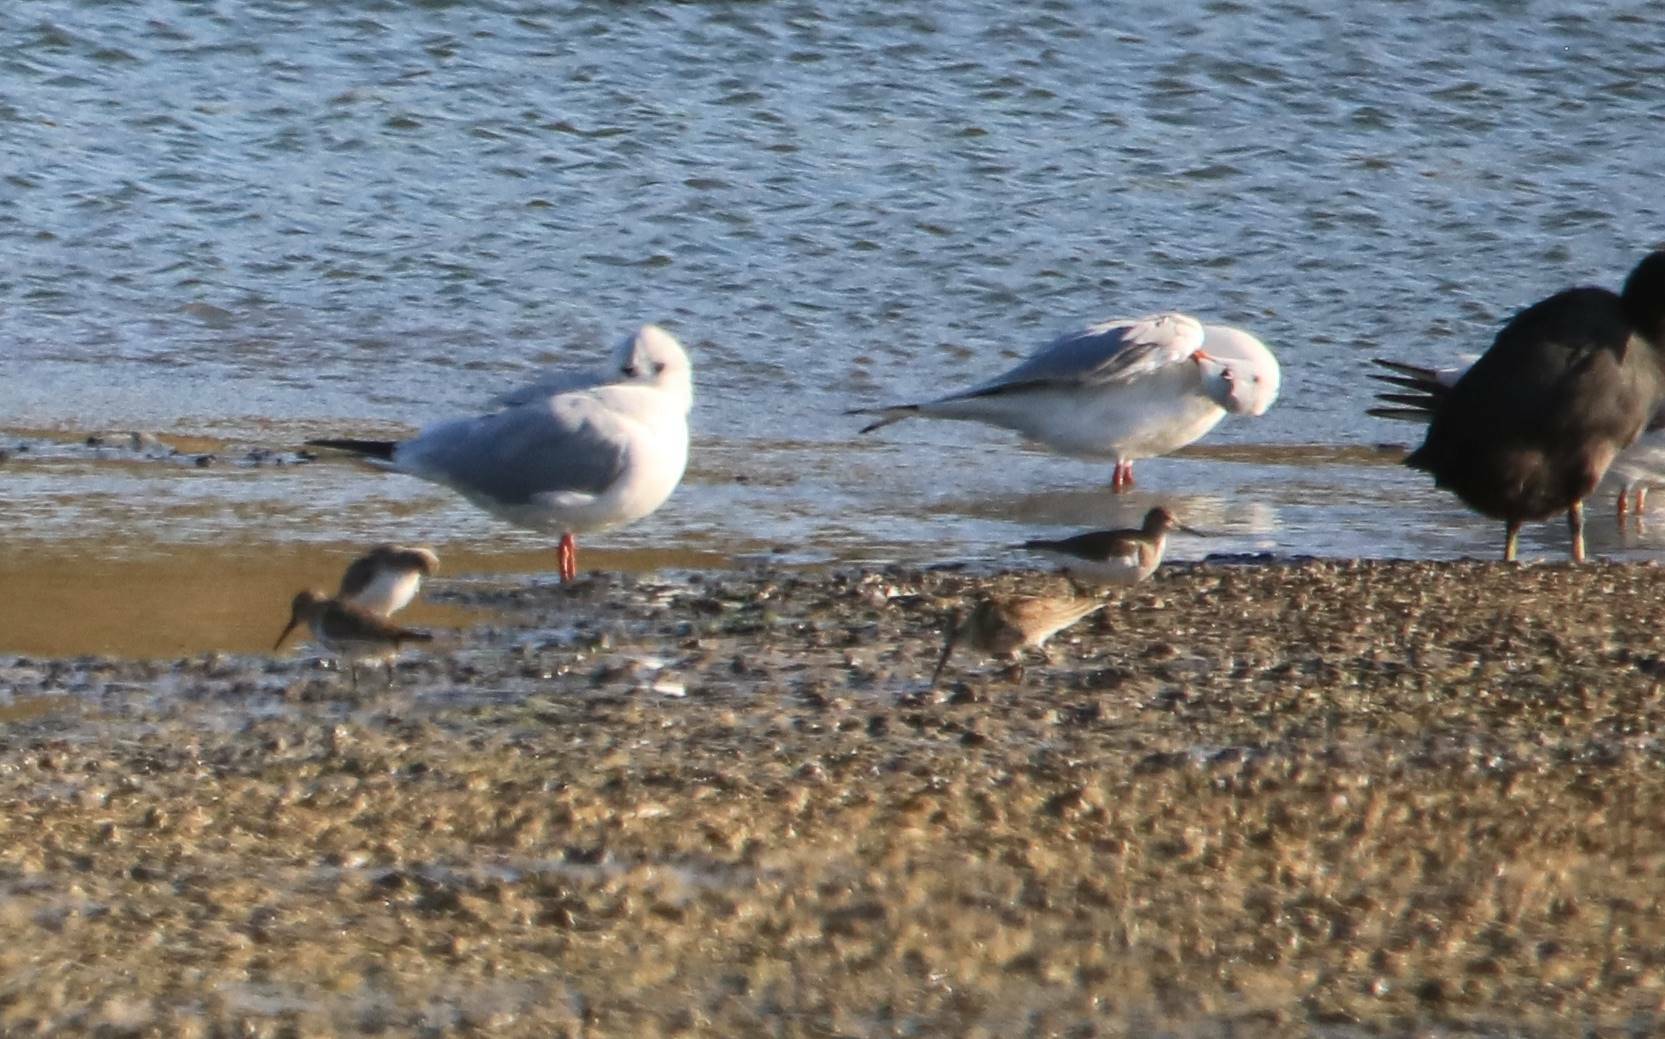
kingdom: Animalia
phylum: Chordata
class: Aves
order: Charadriiformes
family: Laridae
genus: Chroicocephalus
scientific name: Chroicocephalus genei
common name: Slender-billed gull
